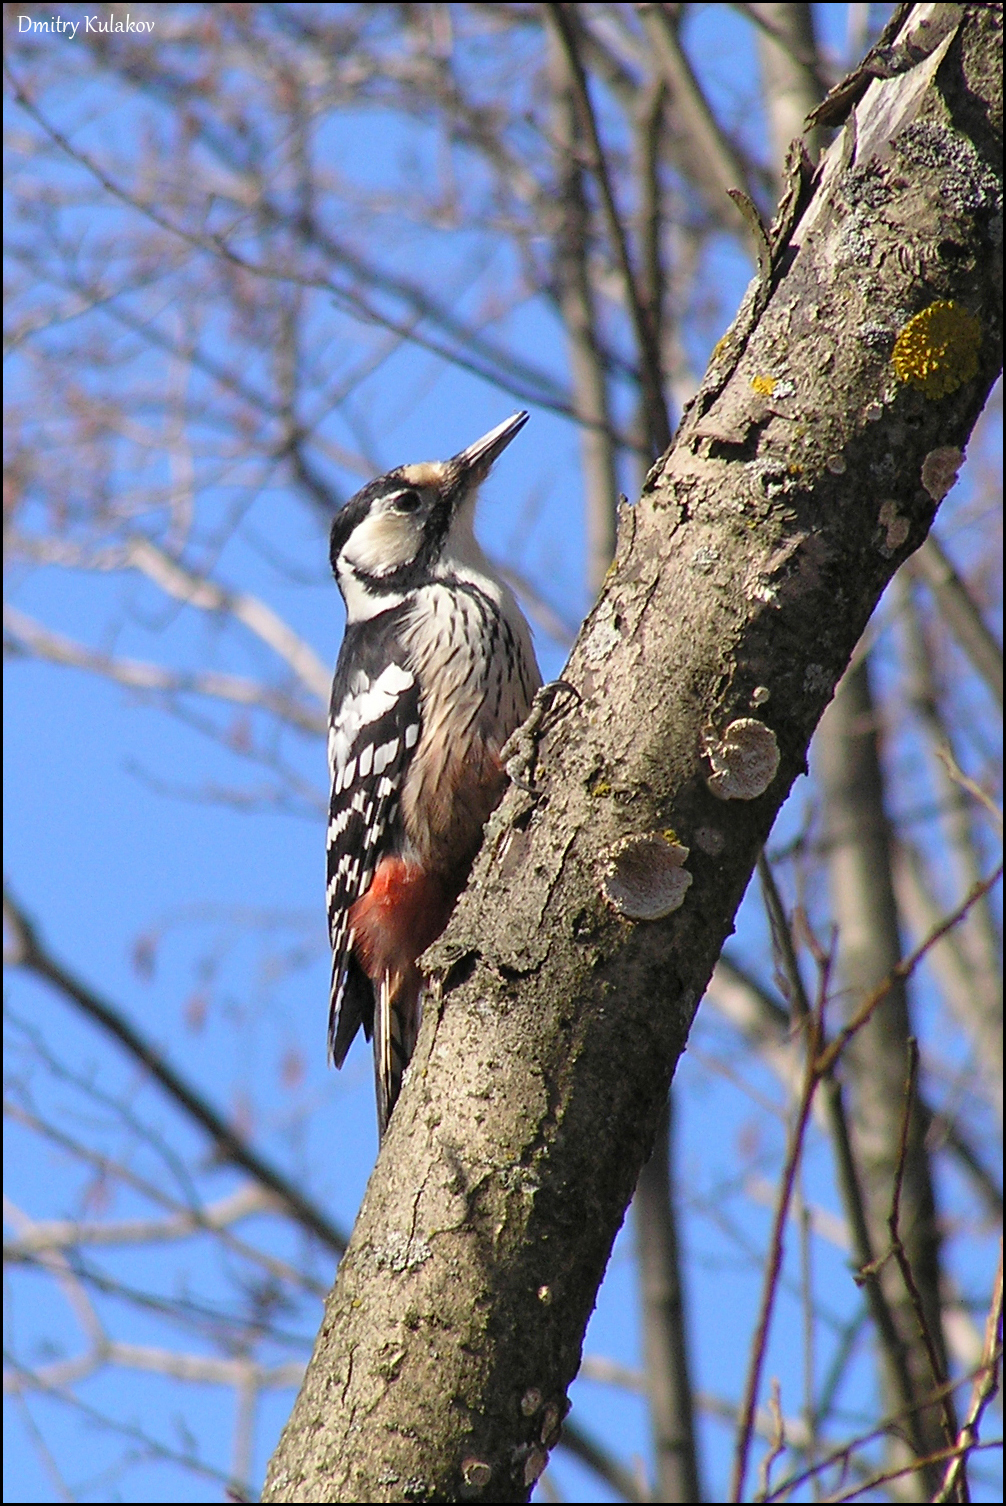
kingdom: Animalia
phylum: Chordata
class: Aves
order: Piciformes
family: Picidae
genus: Dendrocopos
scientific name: Dendrocopos leucotos
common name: White-backed woodpecker
